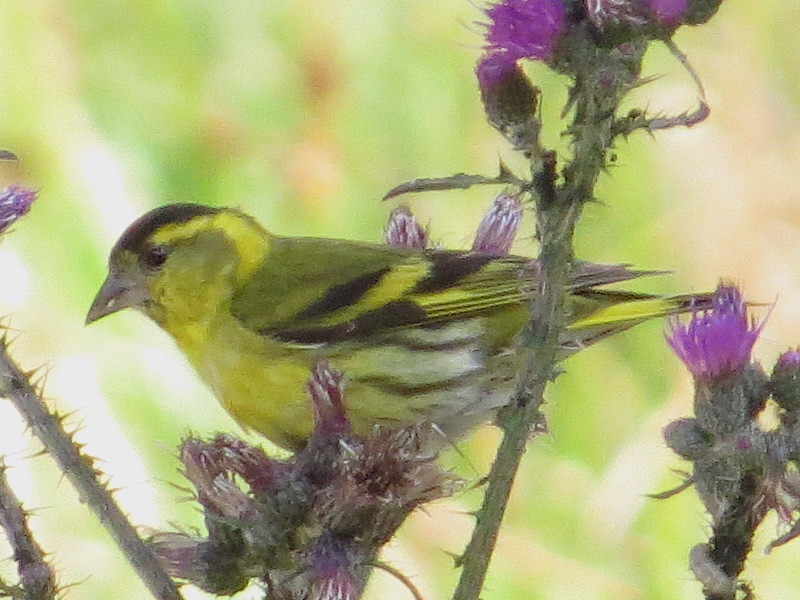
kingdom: Animalia
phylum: Chordata
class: Aves
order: Passeriformes
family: Fringillidae
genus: Spinus
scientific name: Spinus spinus
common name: Eurasian siskin
